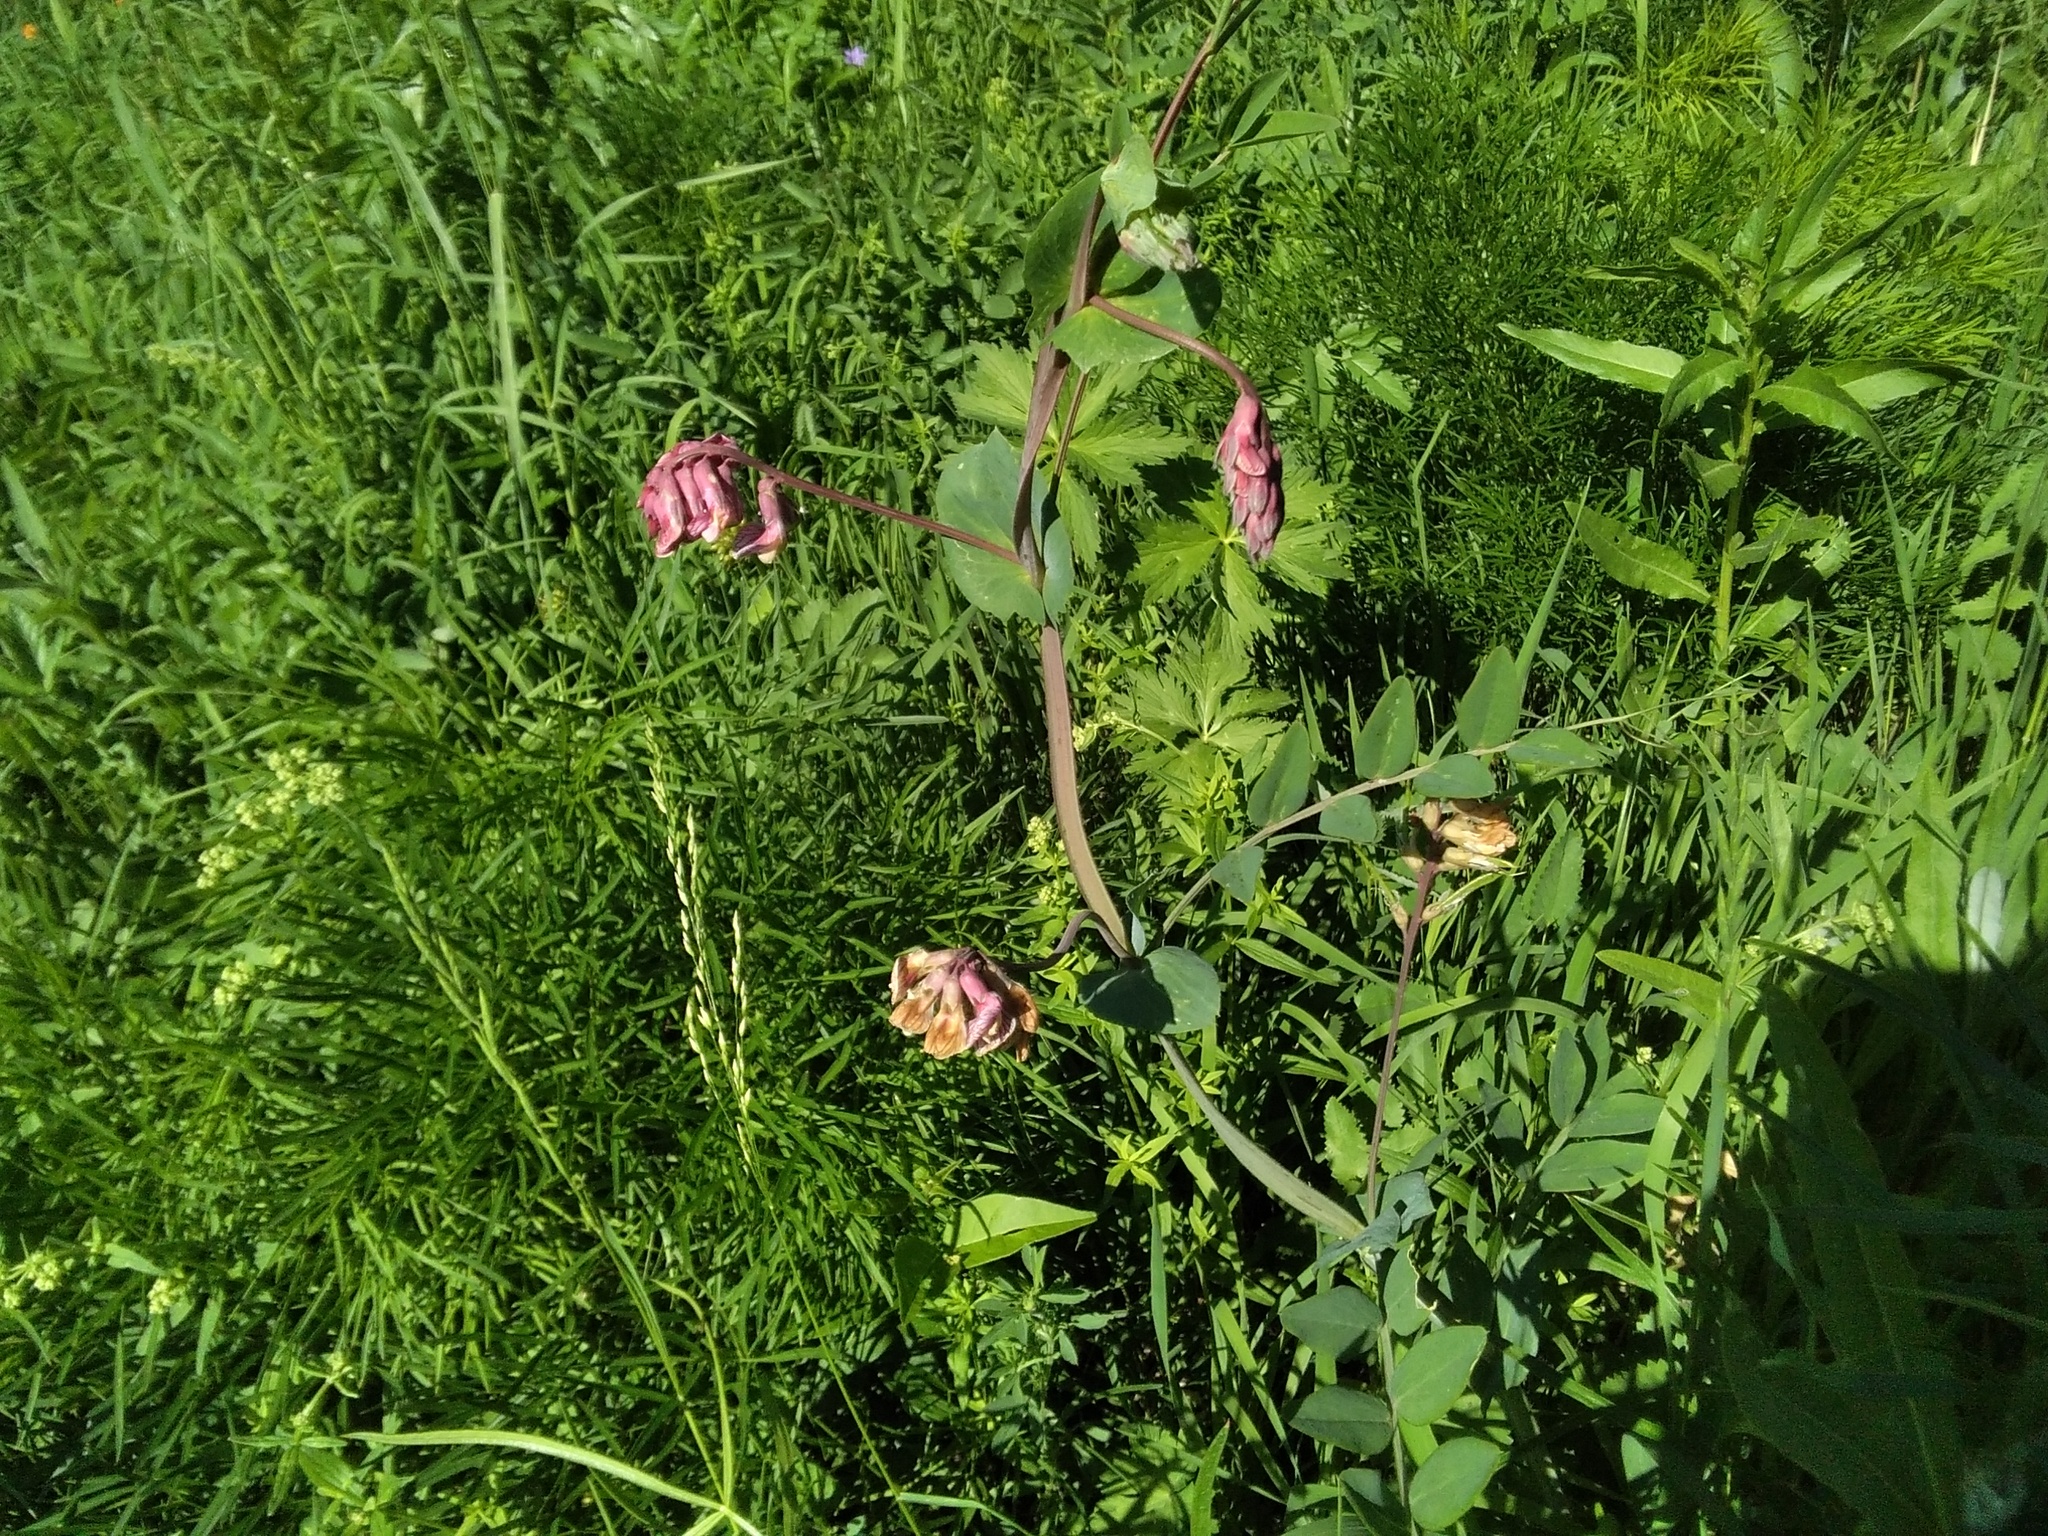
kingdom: Plantae
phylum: Tracheophyta
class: Magnoliopsida
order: Fabales
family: Fabaceae
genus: Lathyrus
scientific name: Lathyrus pisiformis
